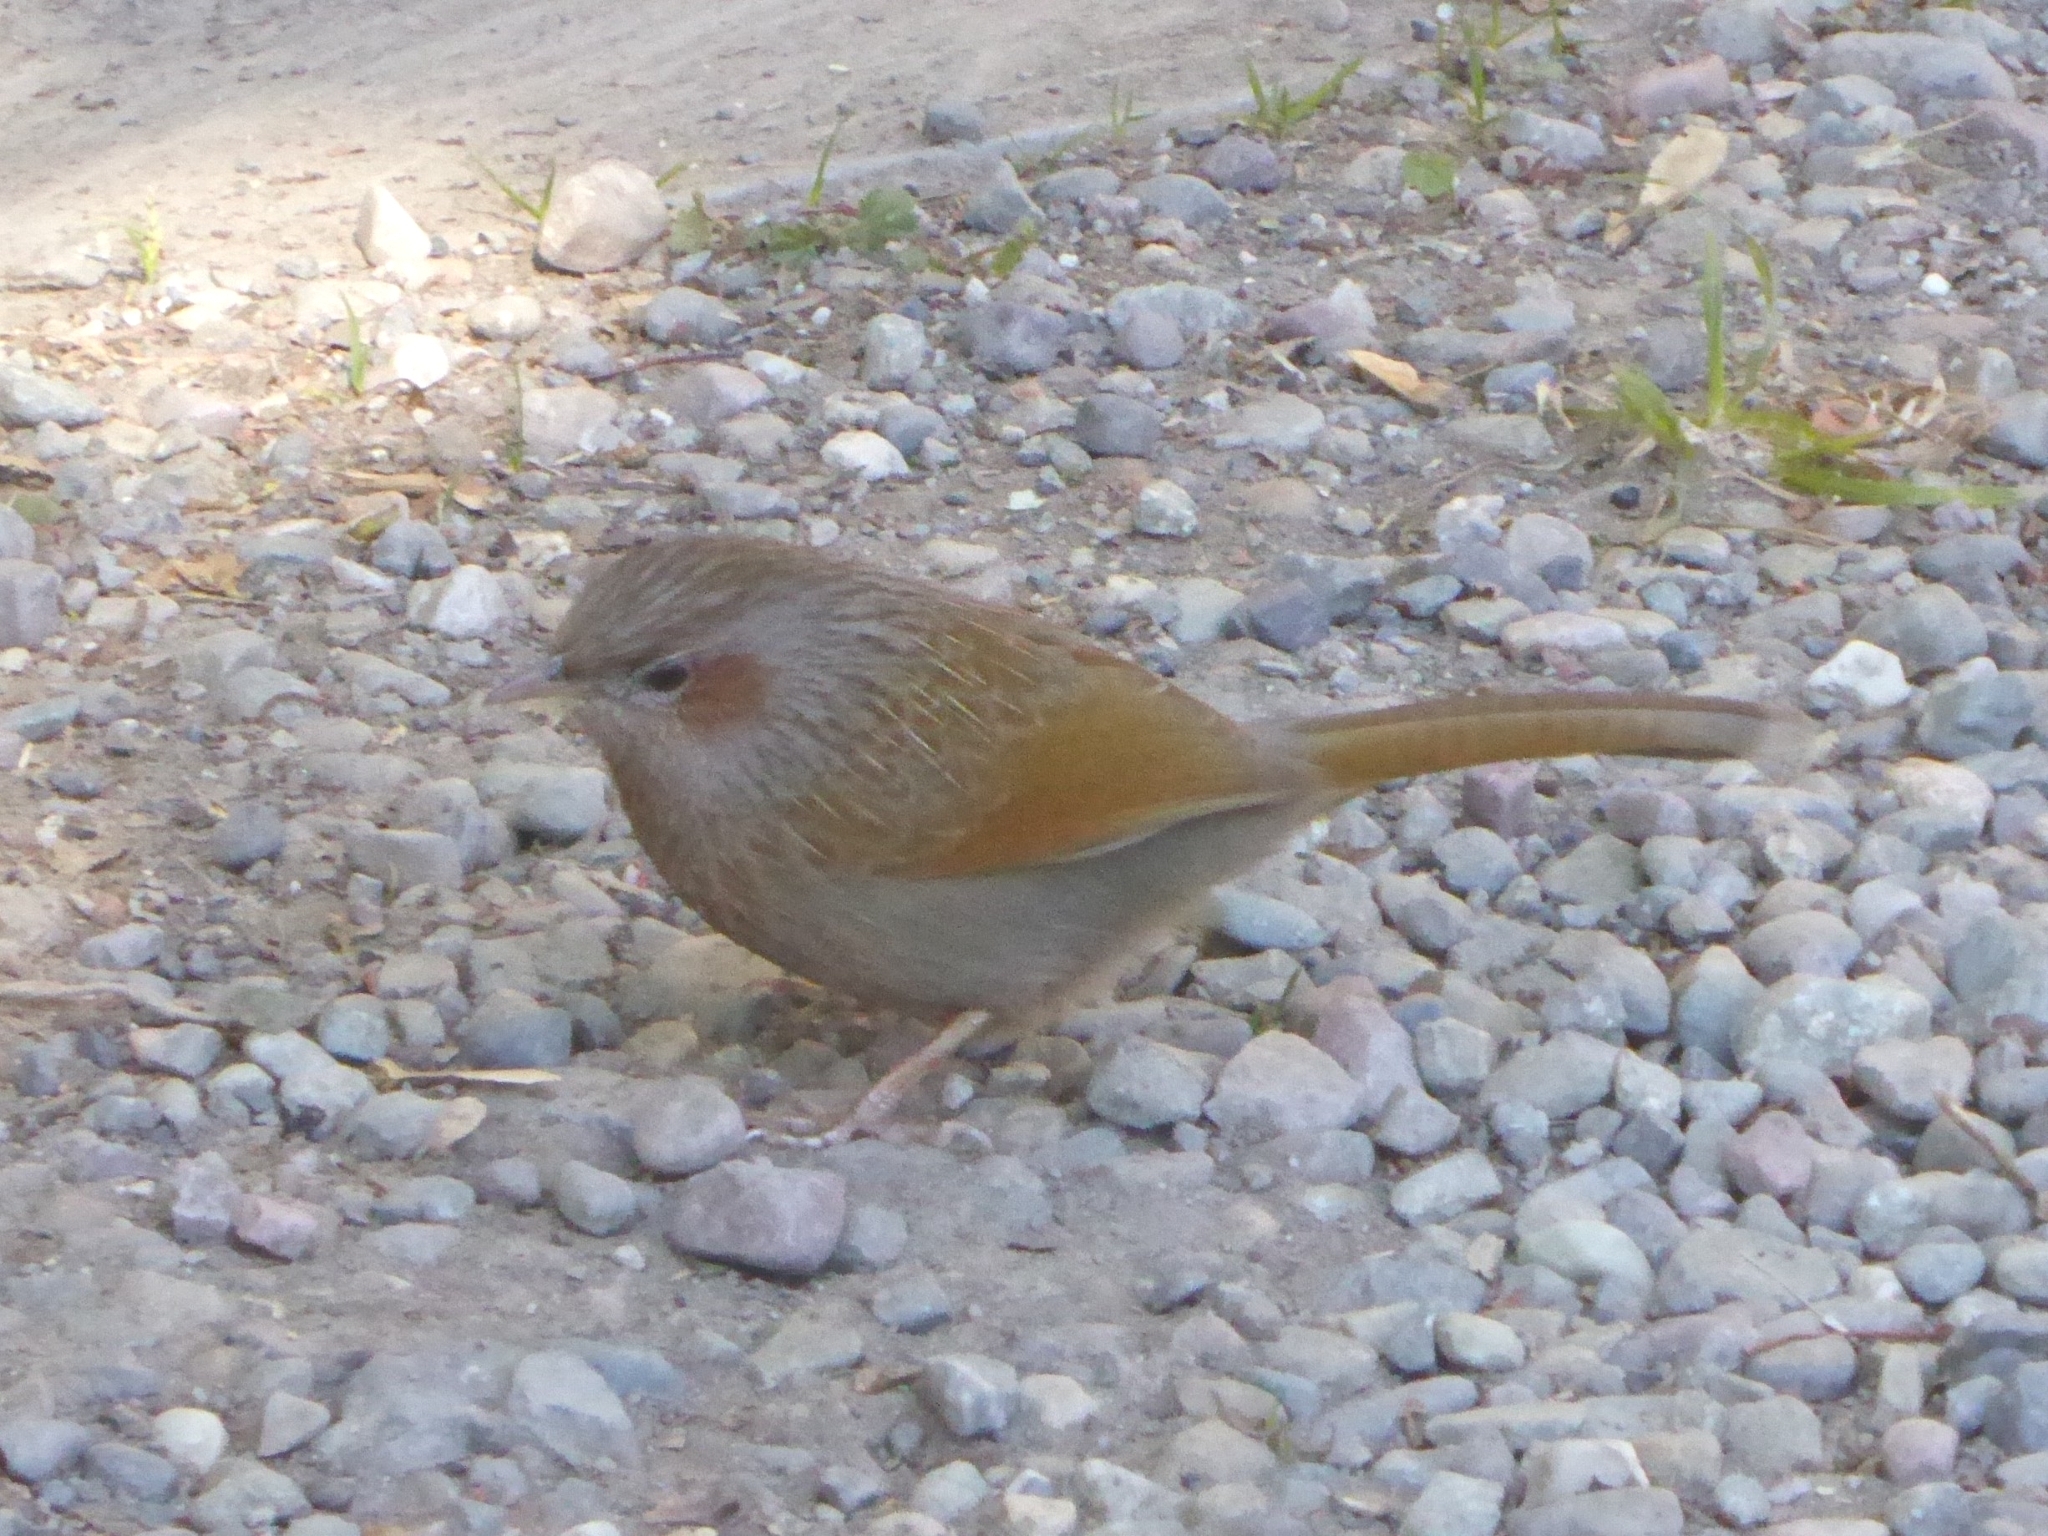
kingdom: Animalia
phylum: Chordata
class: Aves
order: Passeriformes
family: Leiothrichidae
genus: Trochalopteron
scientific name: Trochalopteron lineatum
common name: Streaked laughingthrush
